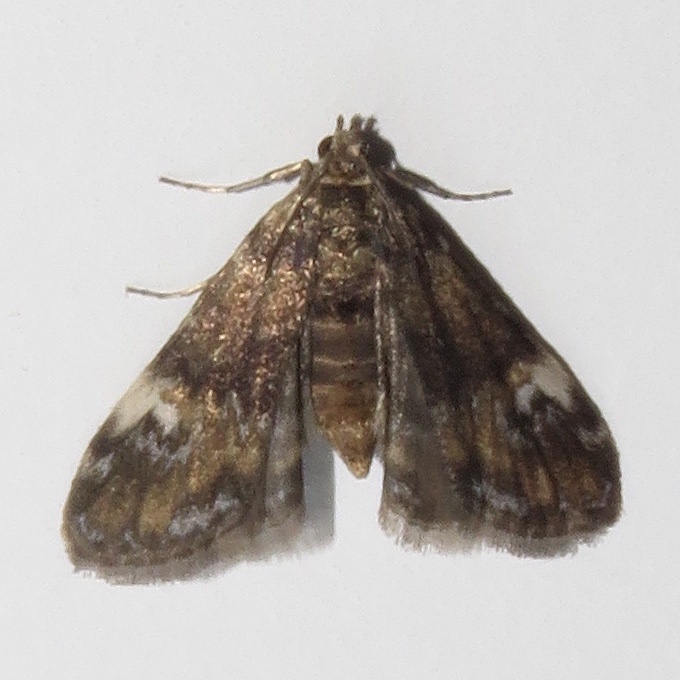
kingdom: Animalia
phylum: Arthropoda
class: Insecta
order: Lepidoptera
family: Crambidae
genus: Elophila
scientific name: Elophila obliteralis
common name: Waterlily leafcutter moth
